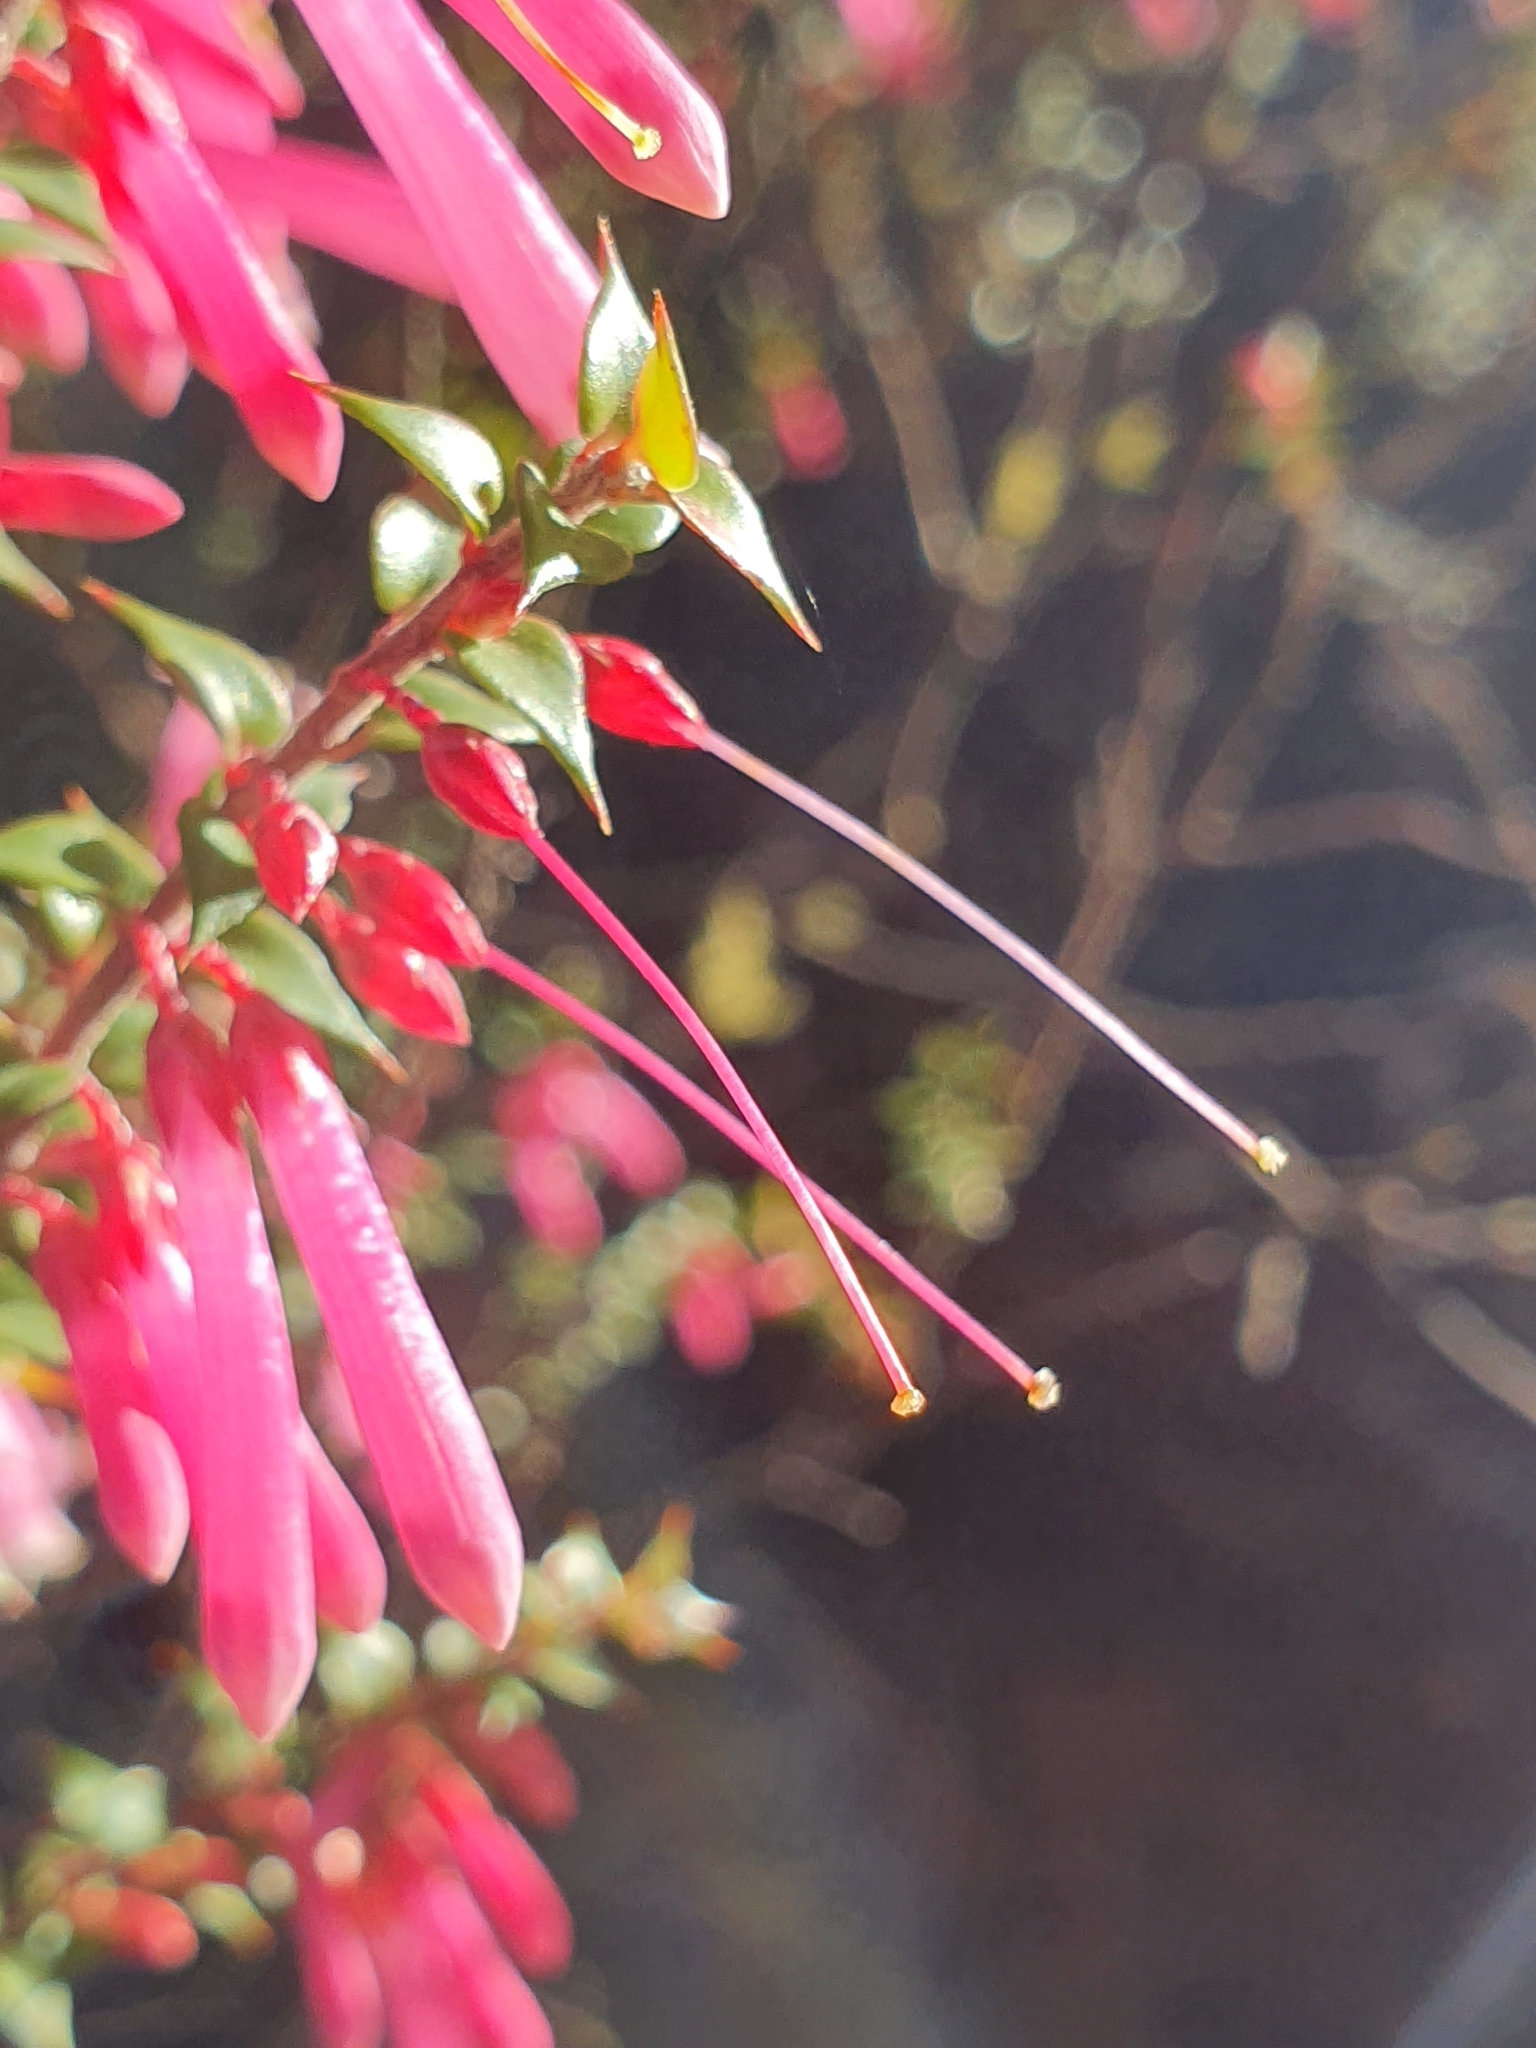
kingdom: Plantae
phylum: Tracheophyta
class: Magnoliopsida
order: Ericales
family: Ericaceae
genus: Epacris
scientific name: Epacris reclinata
